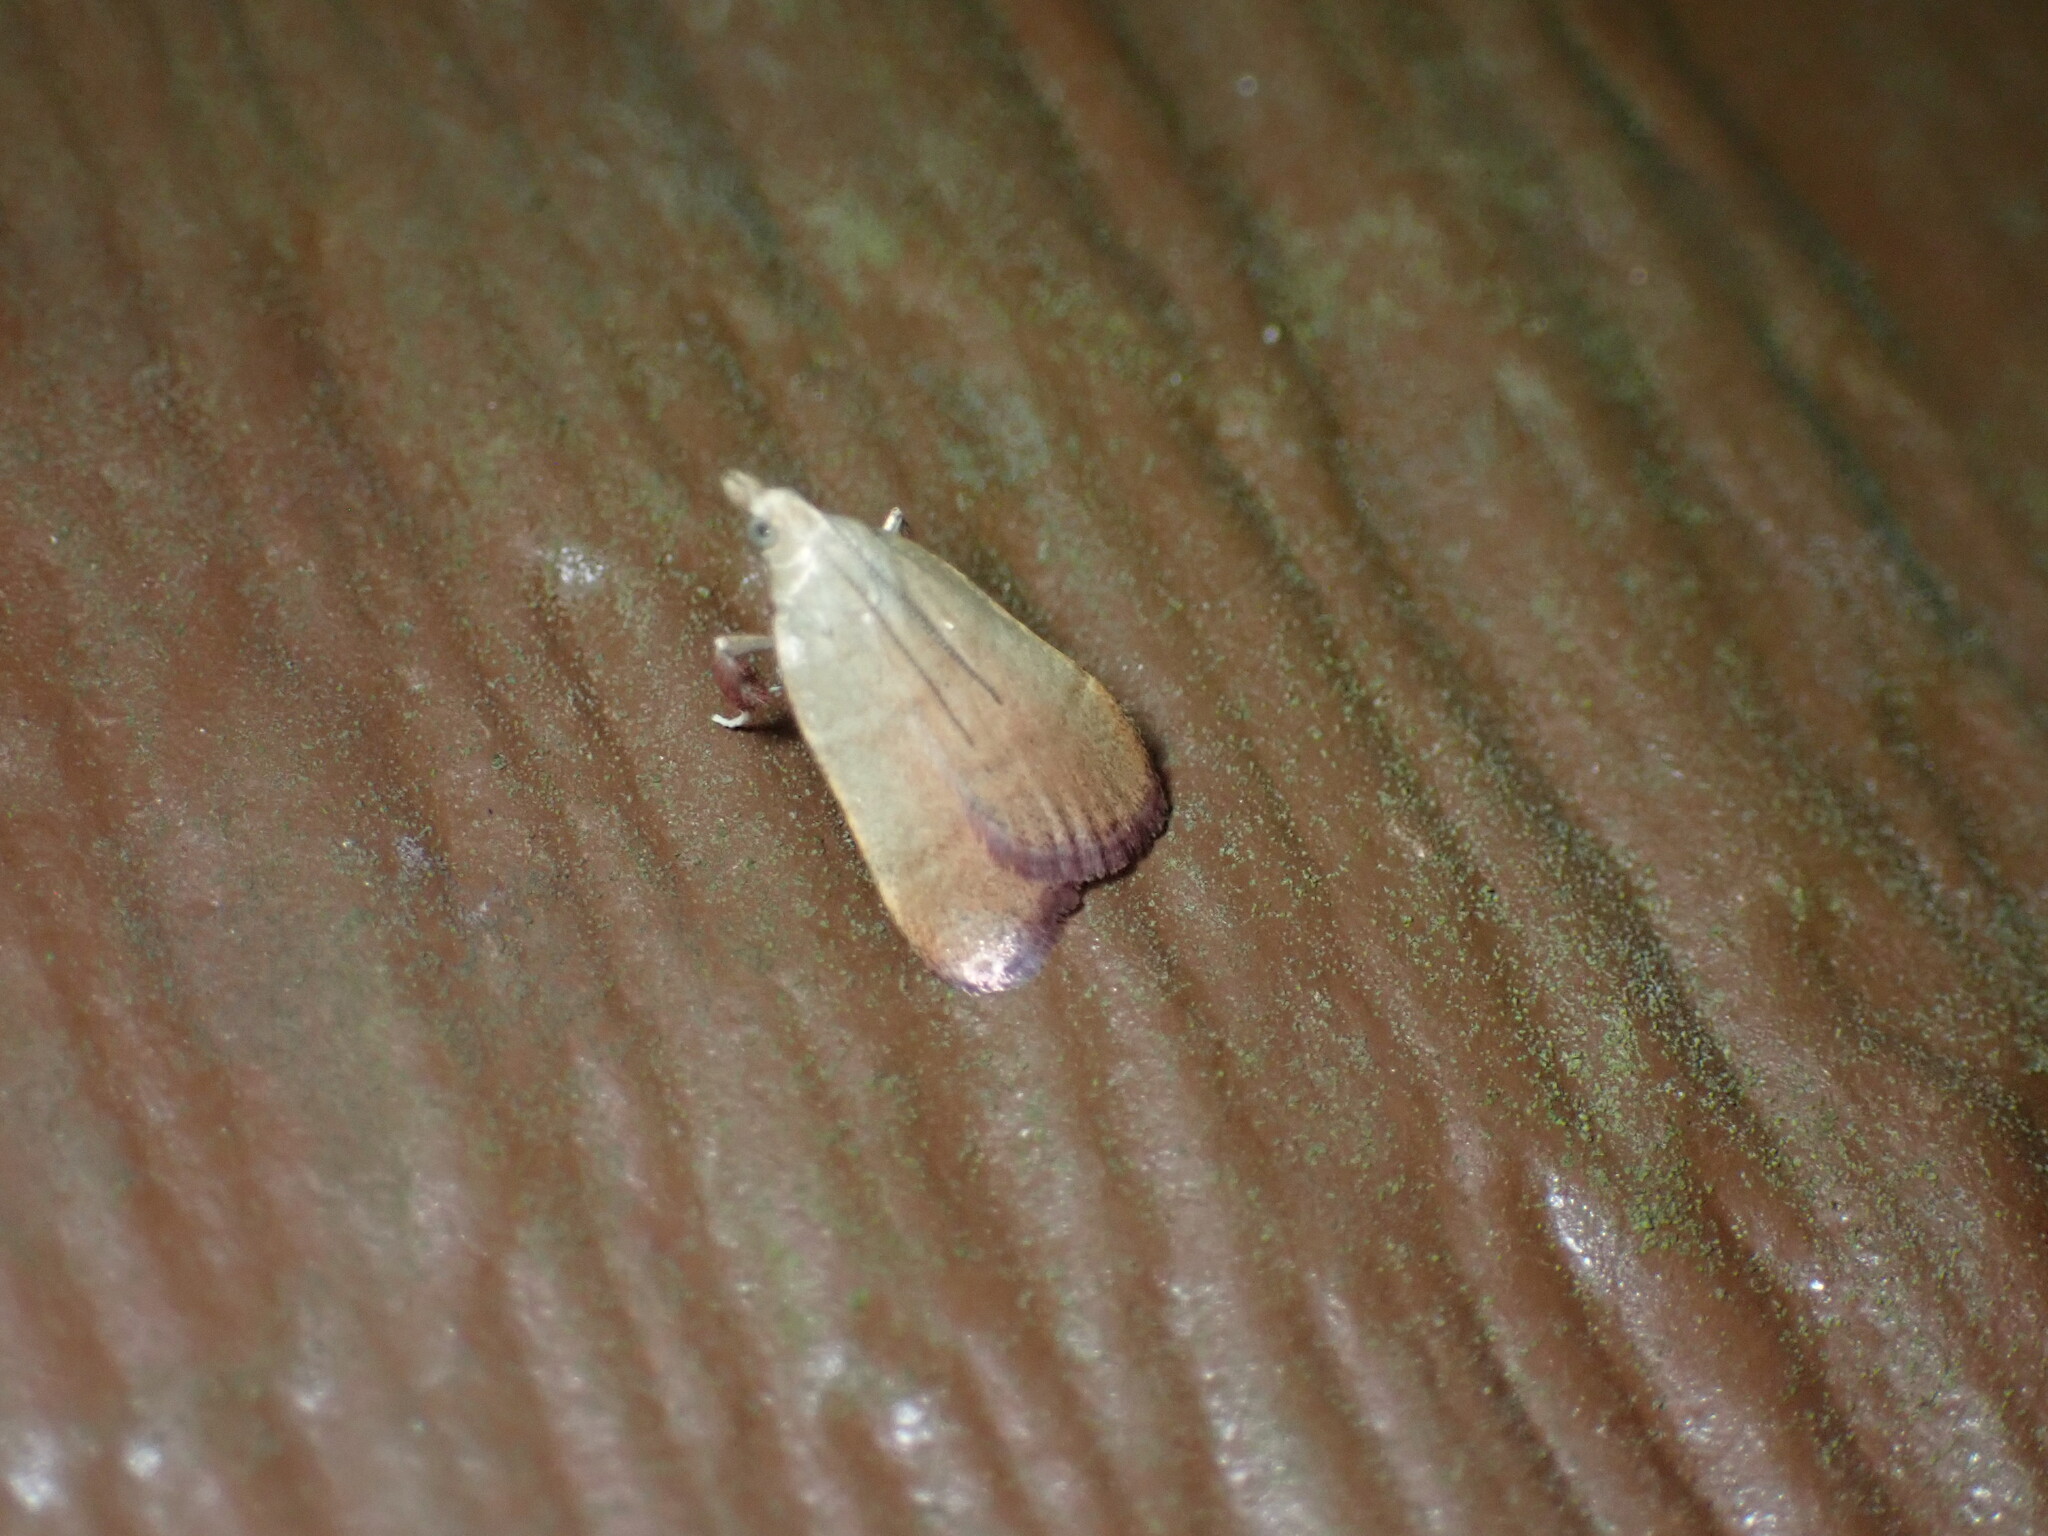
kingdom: Animalia
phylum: Arthropoda
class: Insecta
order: Lepidoptera
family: Pyralidae
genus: Condylolomia
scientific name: Condylolomia participialis
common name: Drab condylolomia moth
